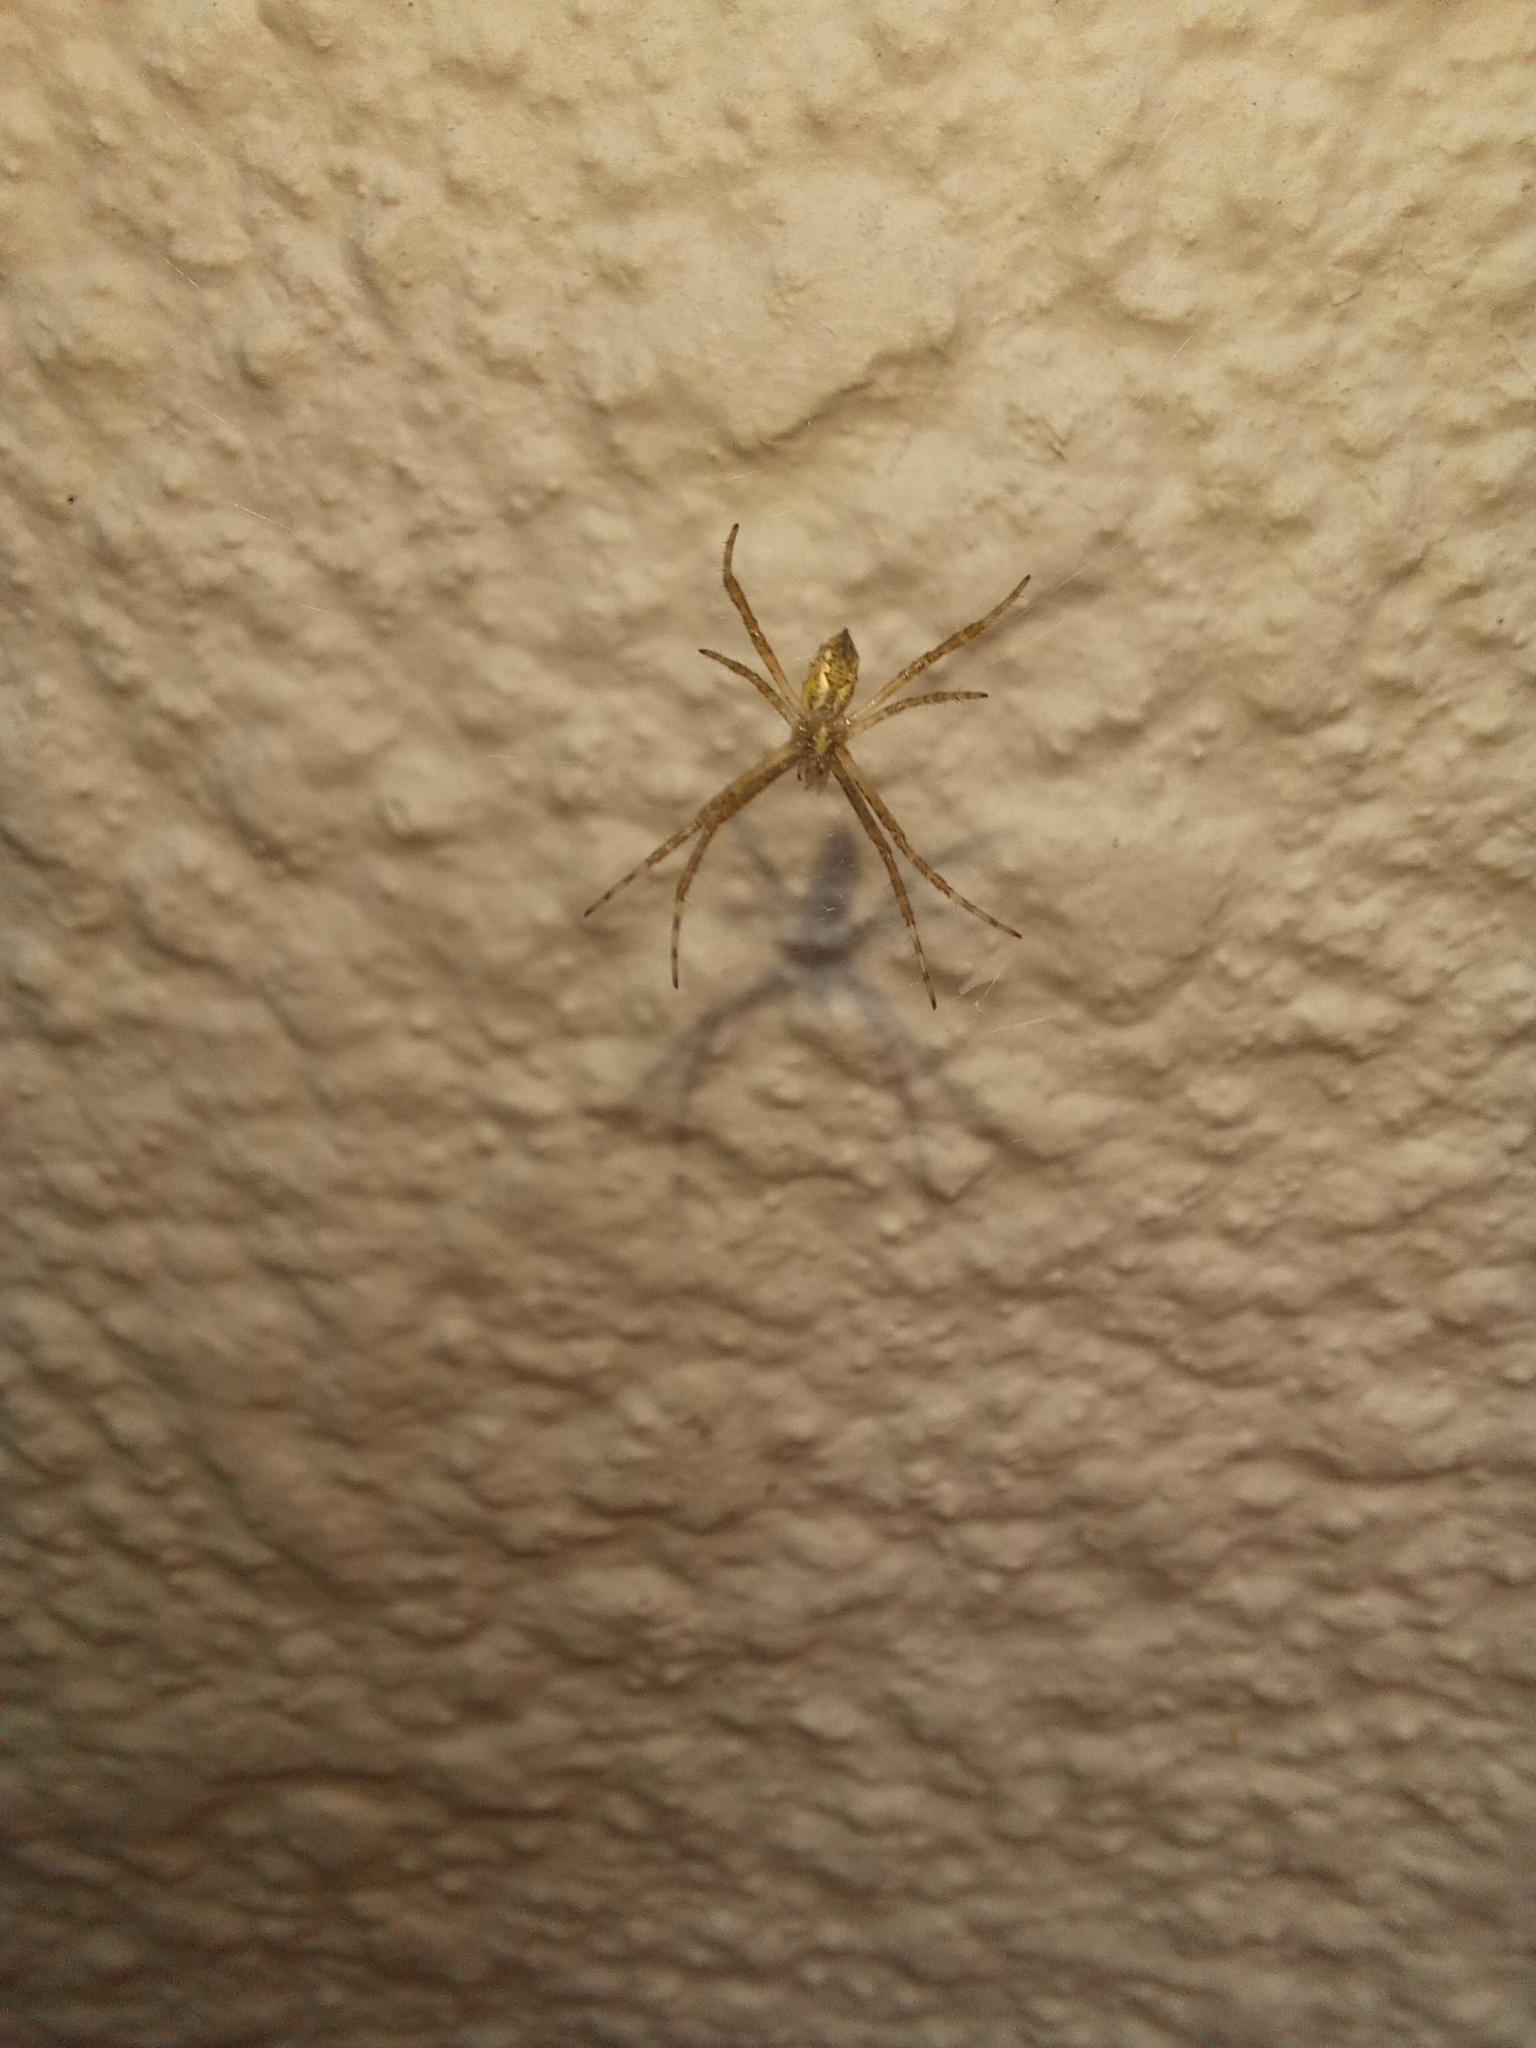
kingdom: Animalia
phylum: Arthropoda
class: Arachnida
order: Araneae
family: Araneidae
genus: Argiope
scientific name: Argiope argentata
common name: Orb weavers
